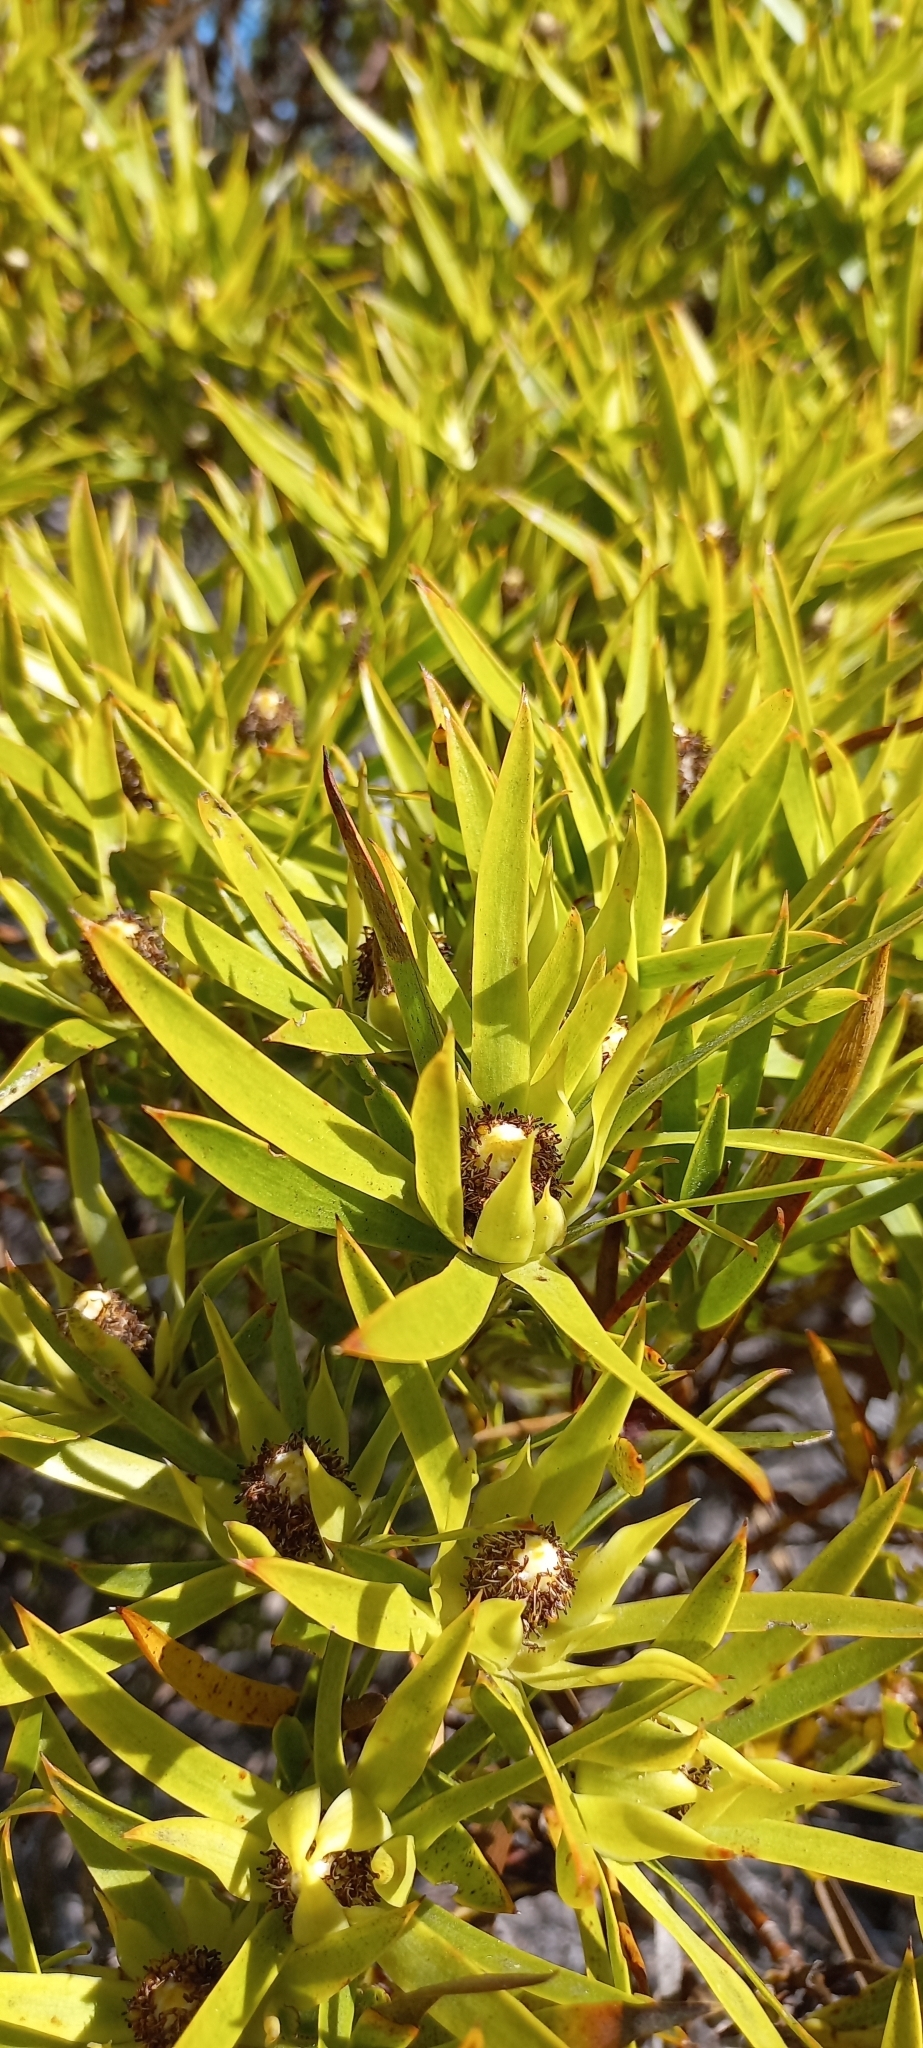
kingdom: Plantae
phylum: Tracheophyta
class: Magnoliopsida
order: Proteales
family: Proteaceae
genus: Leucadendron
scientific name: Leucadendron laureolum
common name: Golden sunshinebush
